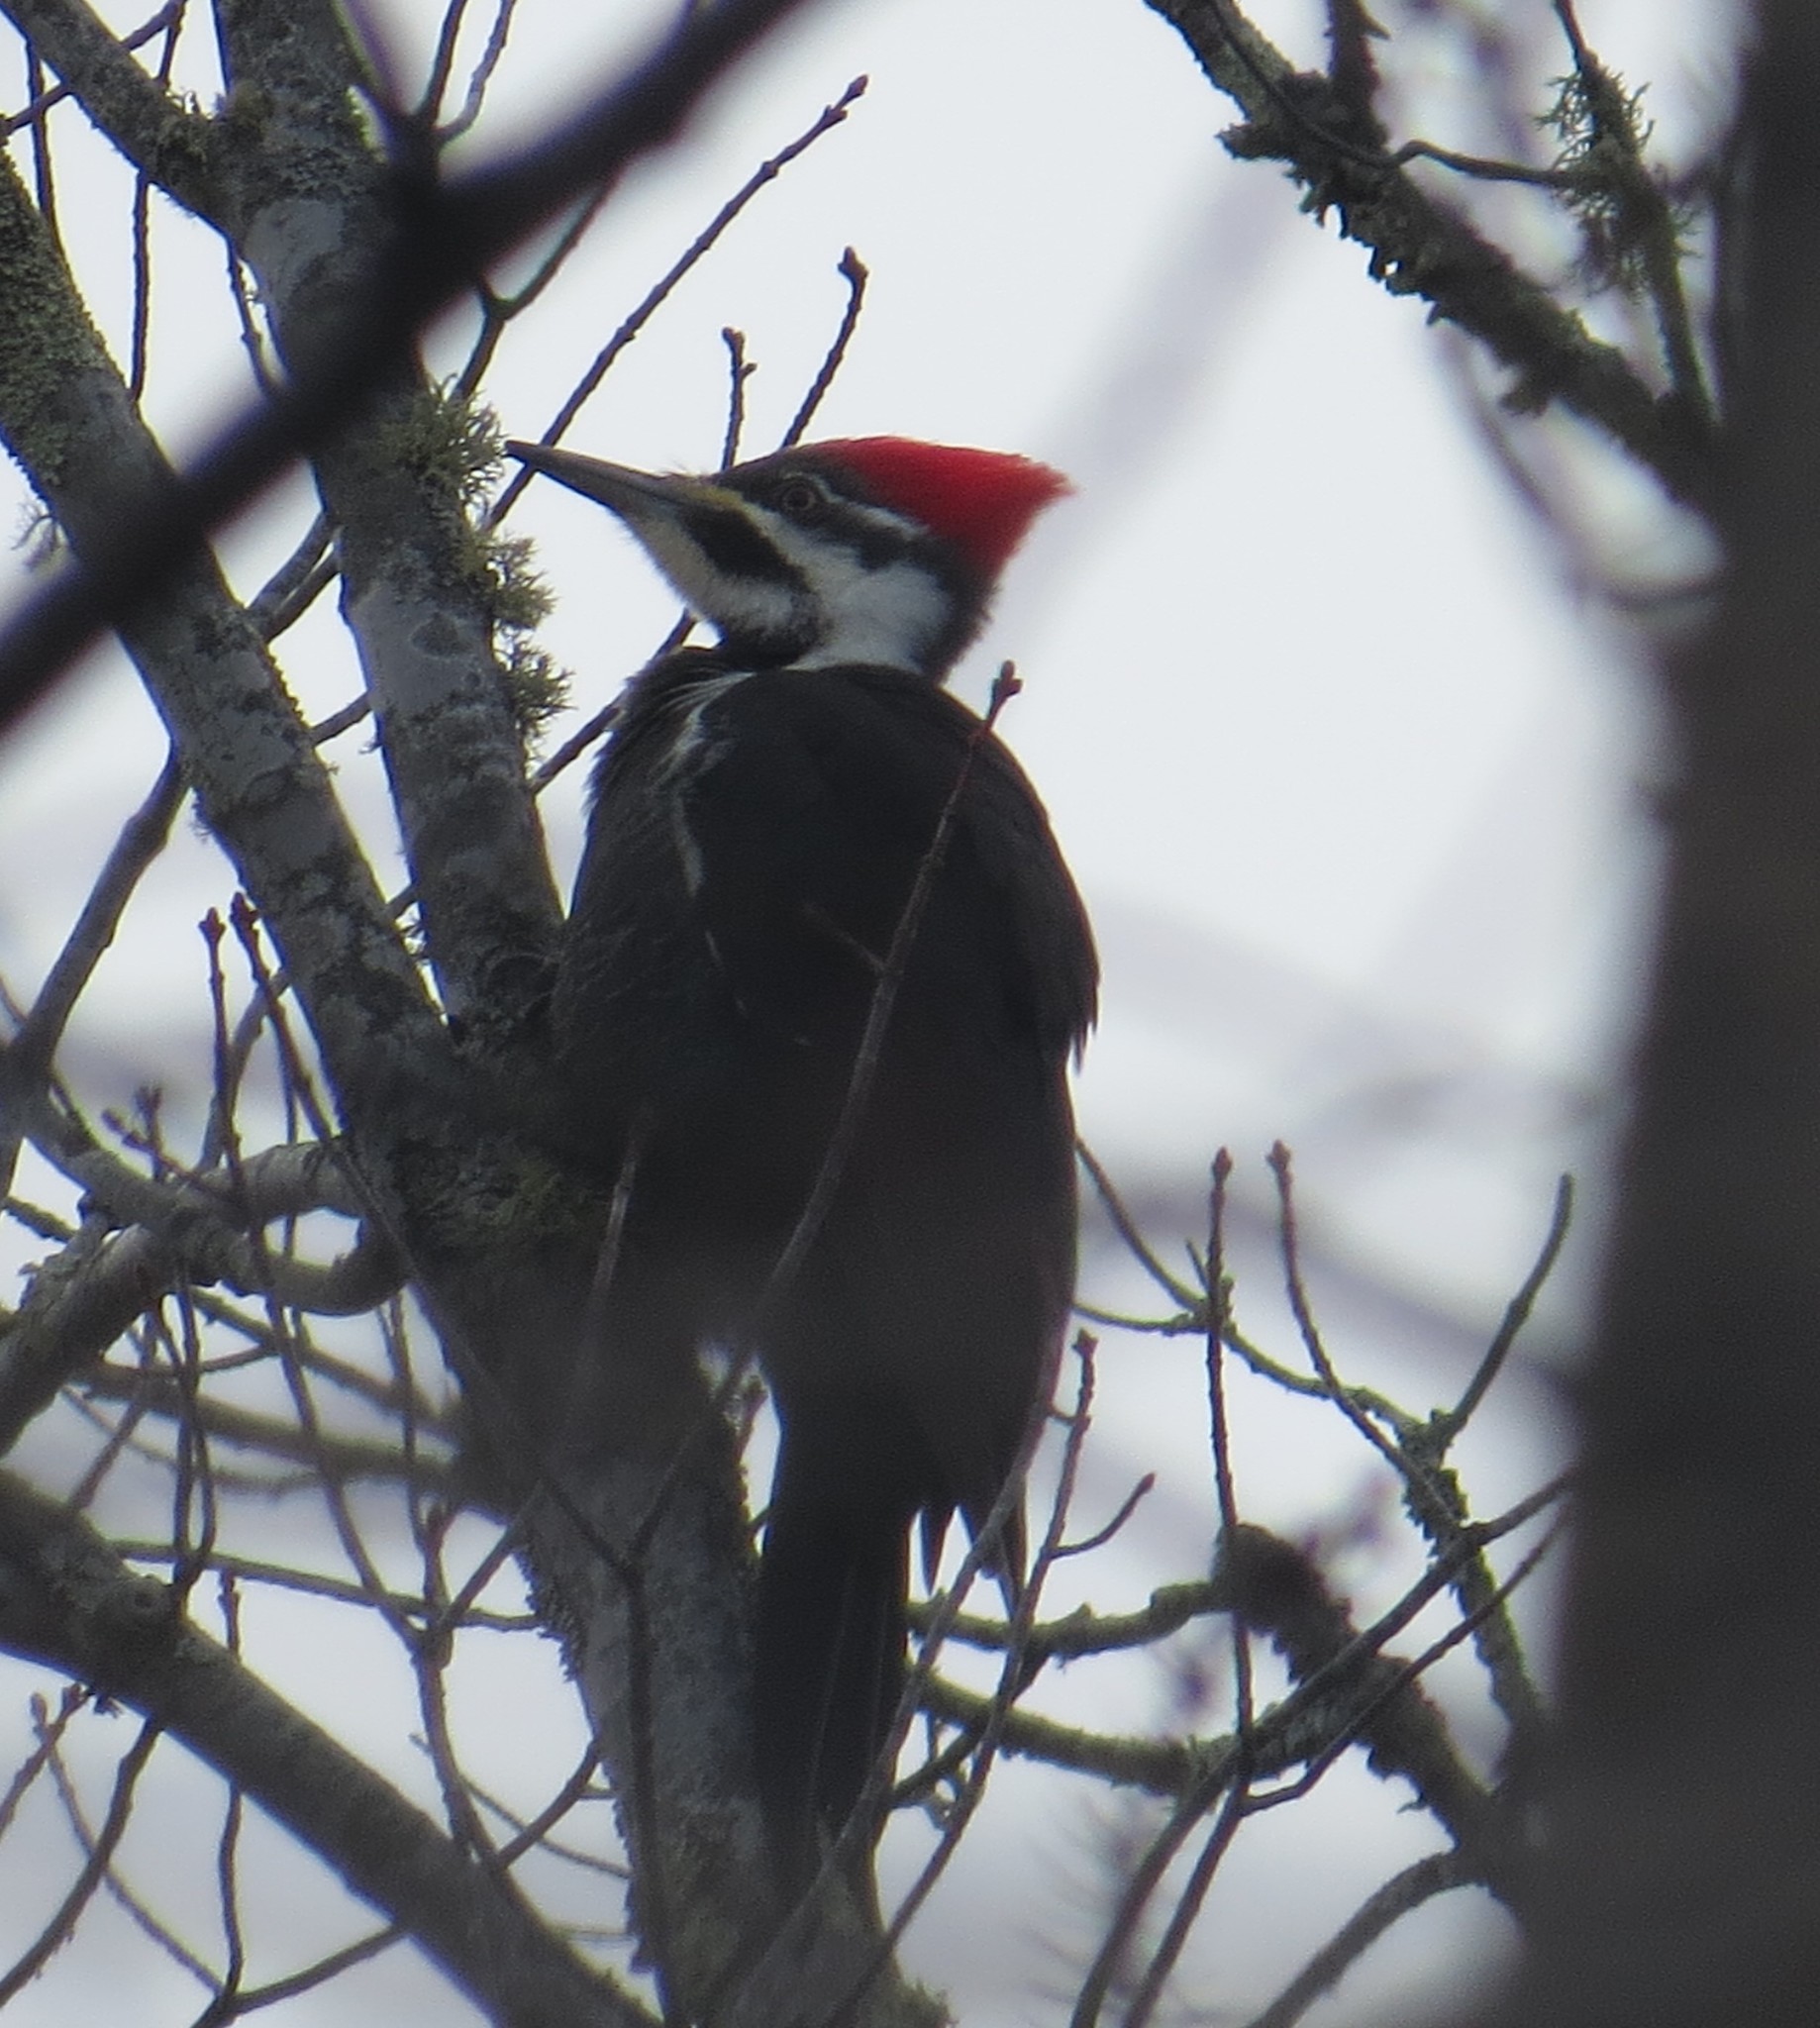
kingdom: Animalia
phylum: Chordata
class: Aves
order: Piciformes
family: Picidae
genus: Dryocopus
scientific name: Dryocopus pileatus
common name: Pileated woodpecker
